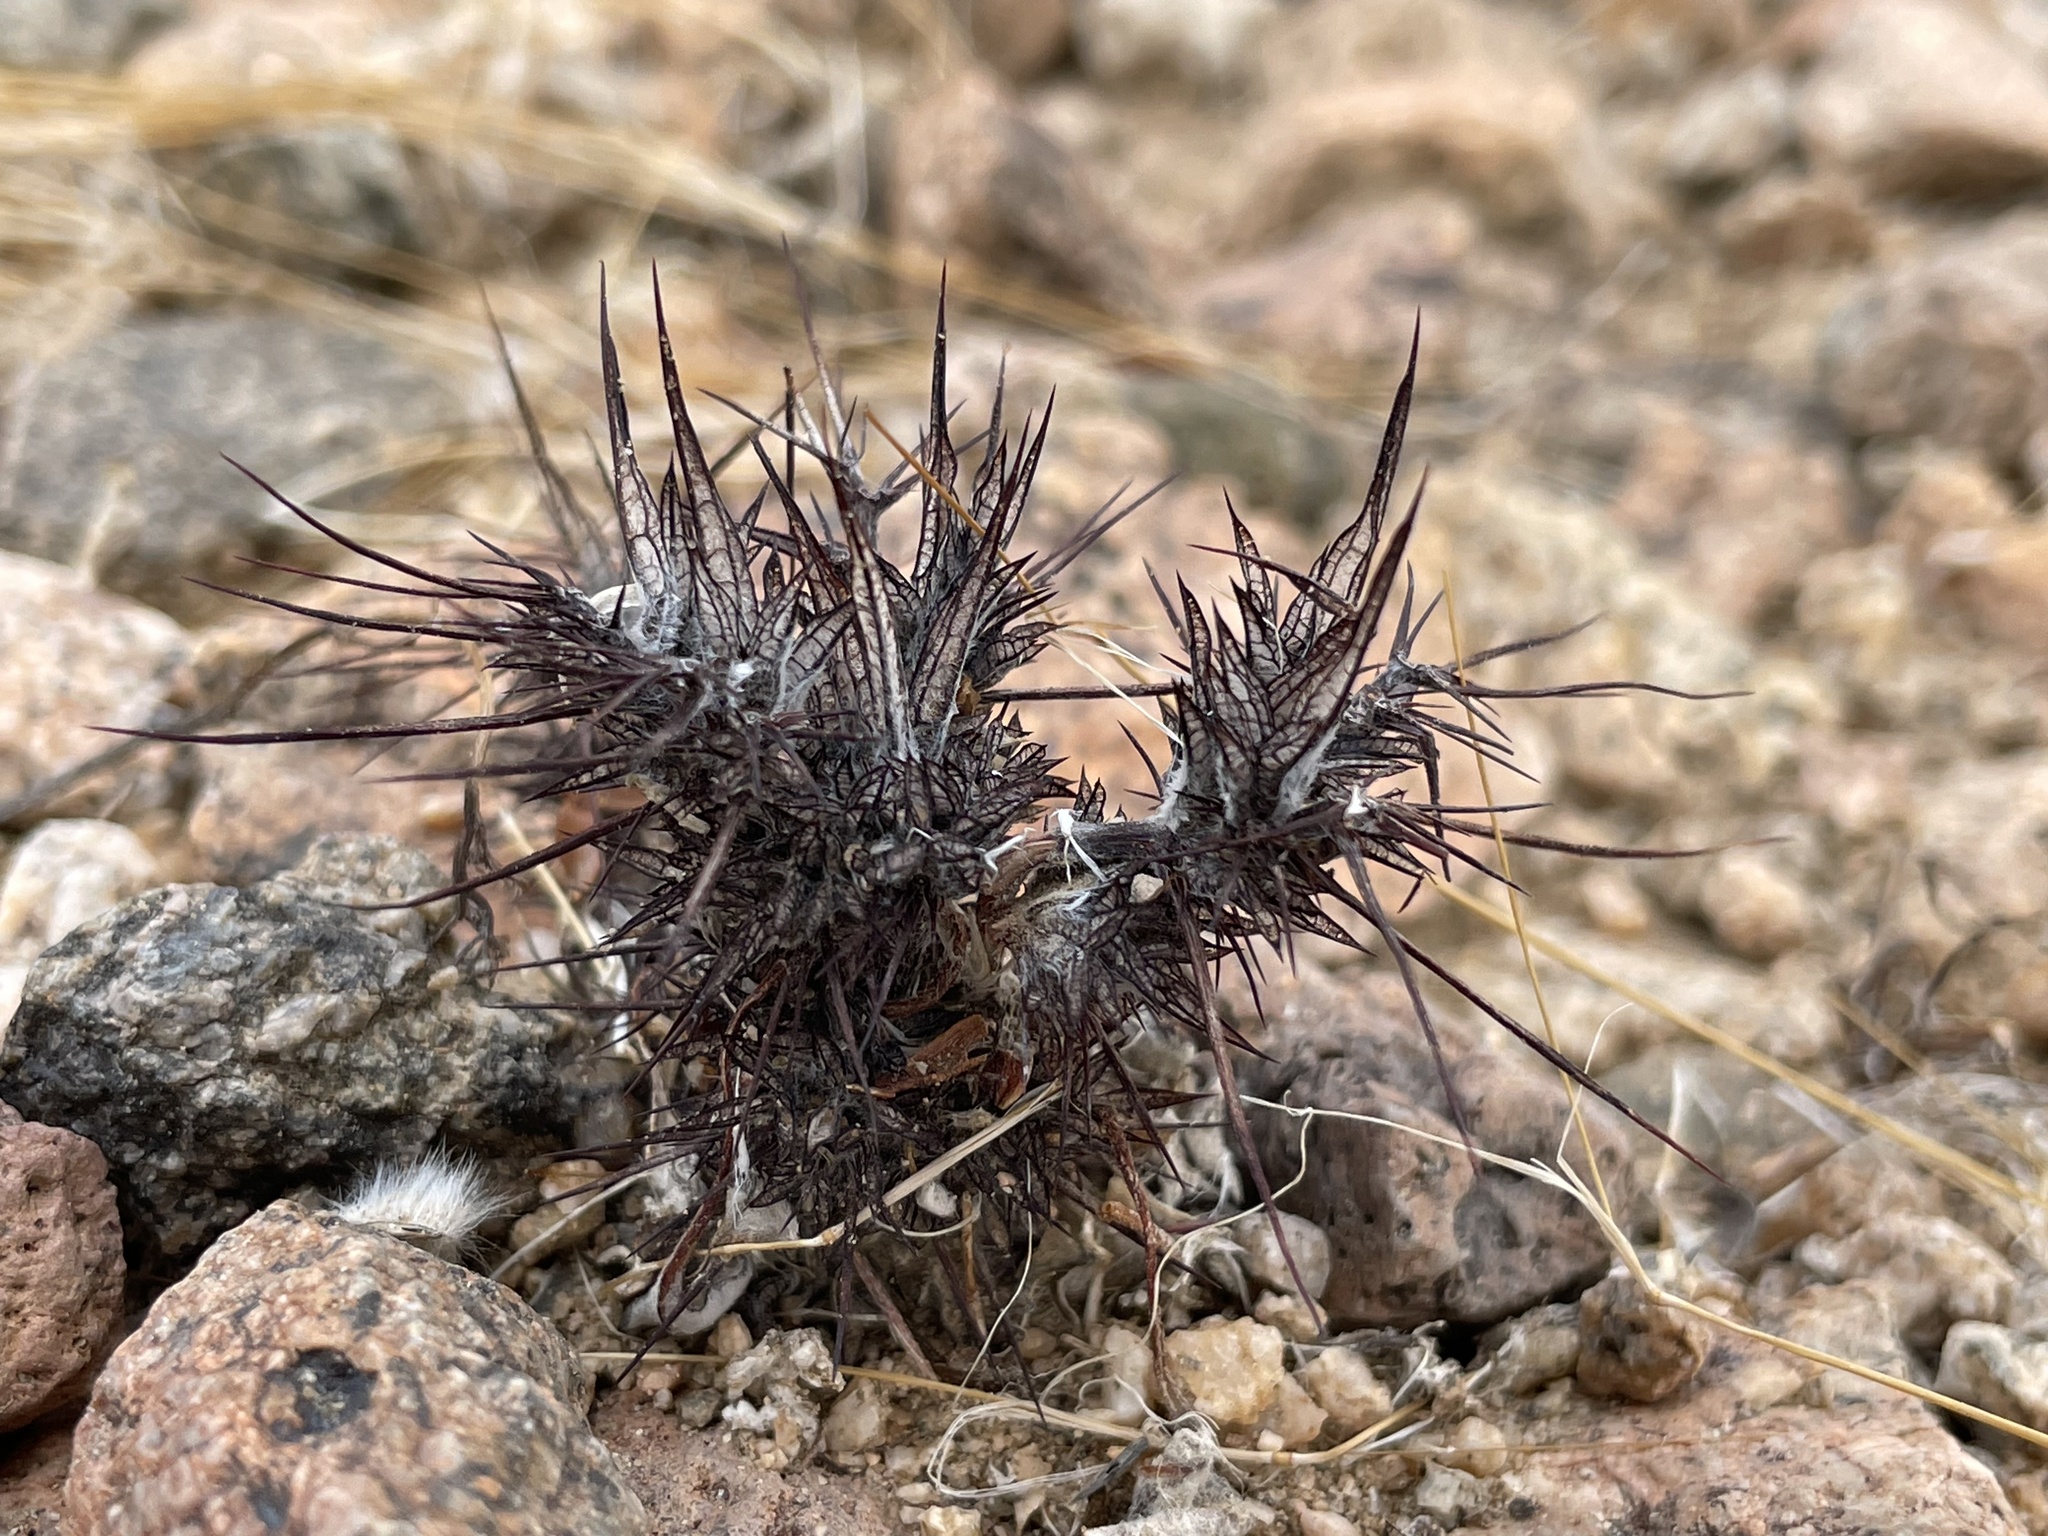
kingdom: Plantae
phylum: Tracheophyta
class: Magnoliopsida
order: Caryophyllales
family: Polygonaceae
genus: Chorizanthe
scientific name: Chorizanthe rigida
